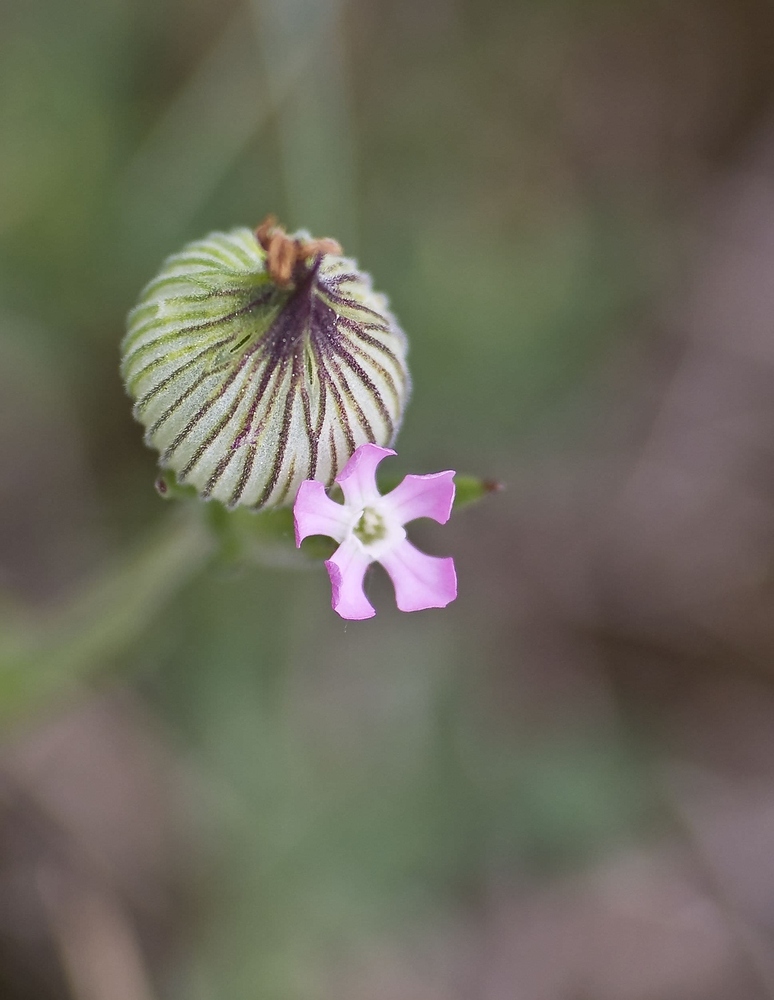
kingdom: Plantae
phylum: Tracheophyta
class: Magnoliopsida
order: Caryophyllales
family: Caryophyllaceae
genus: Silene
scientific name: Silene conica
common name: Sand catchfly
